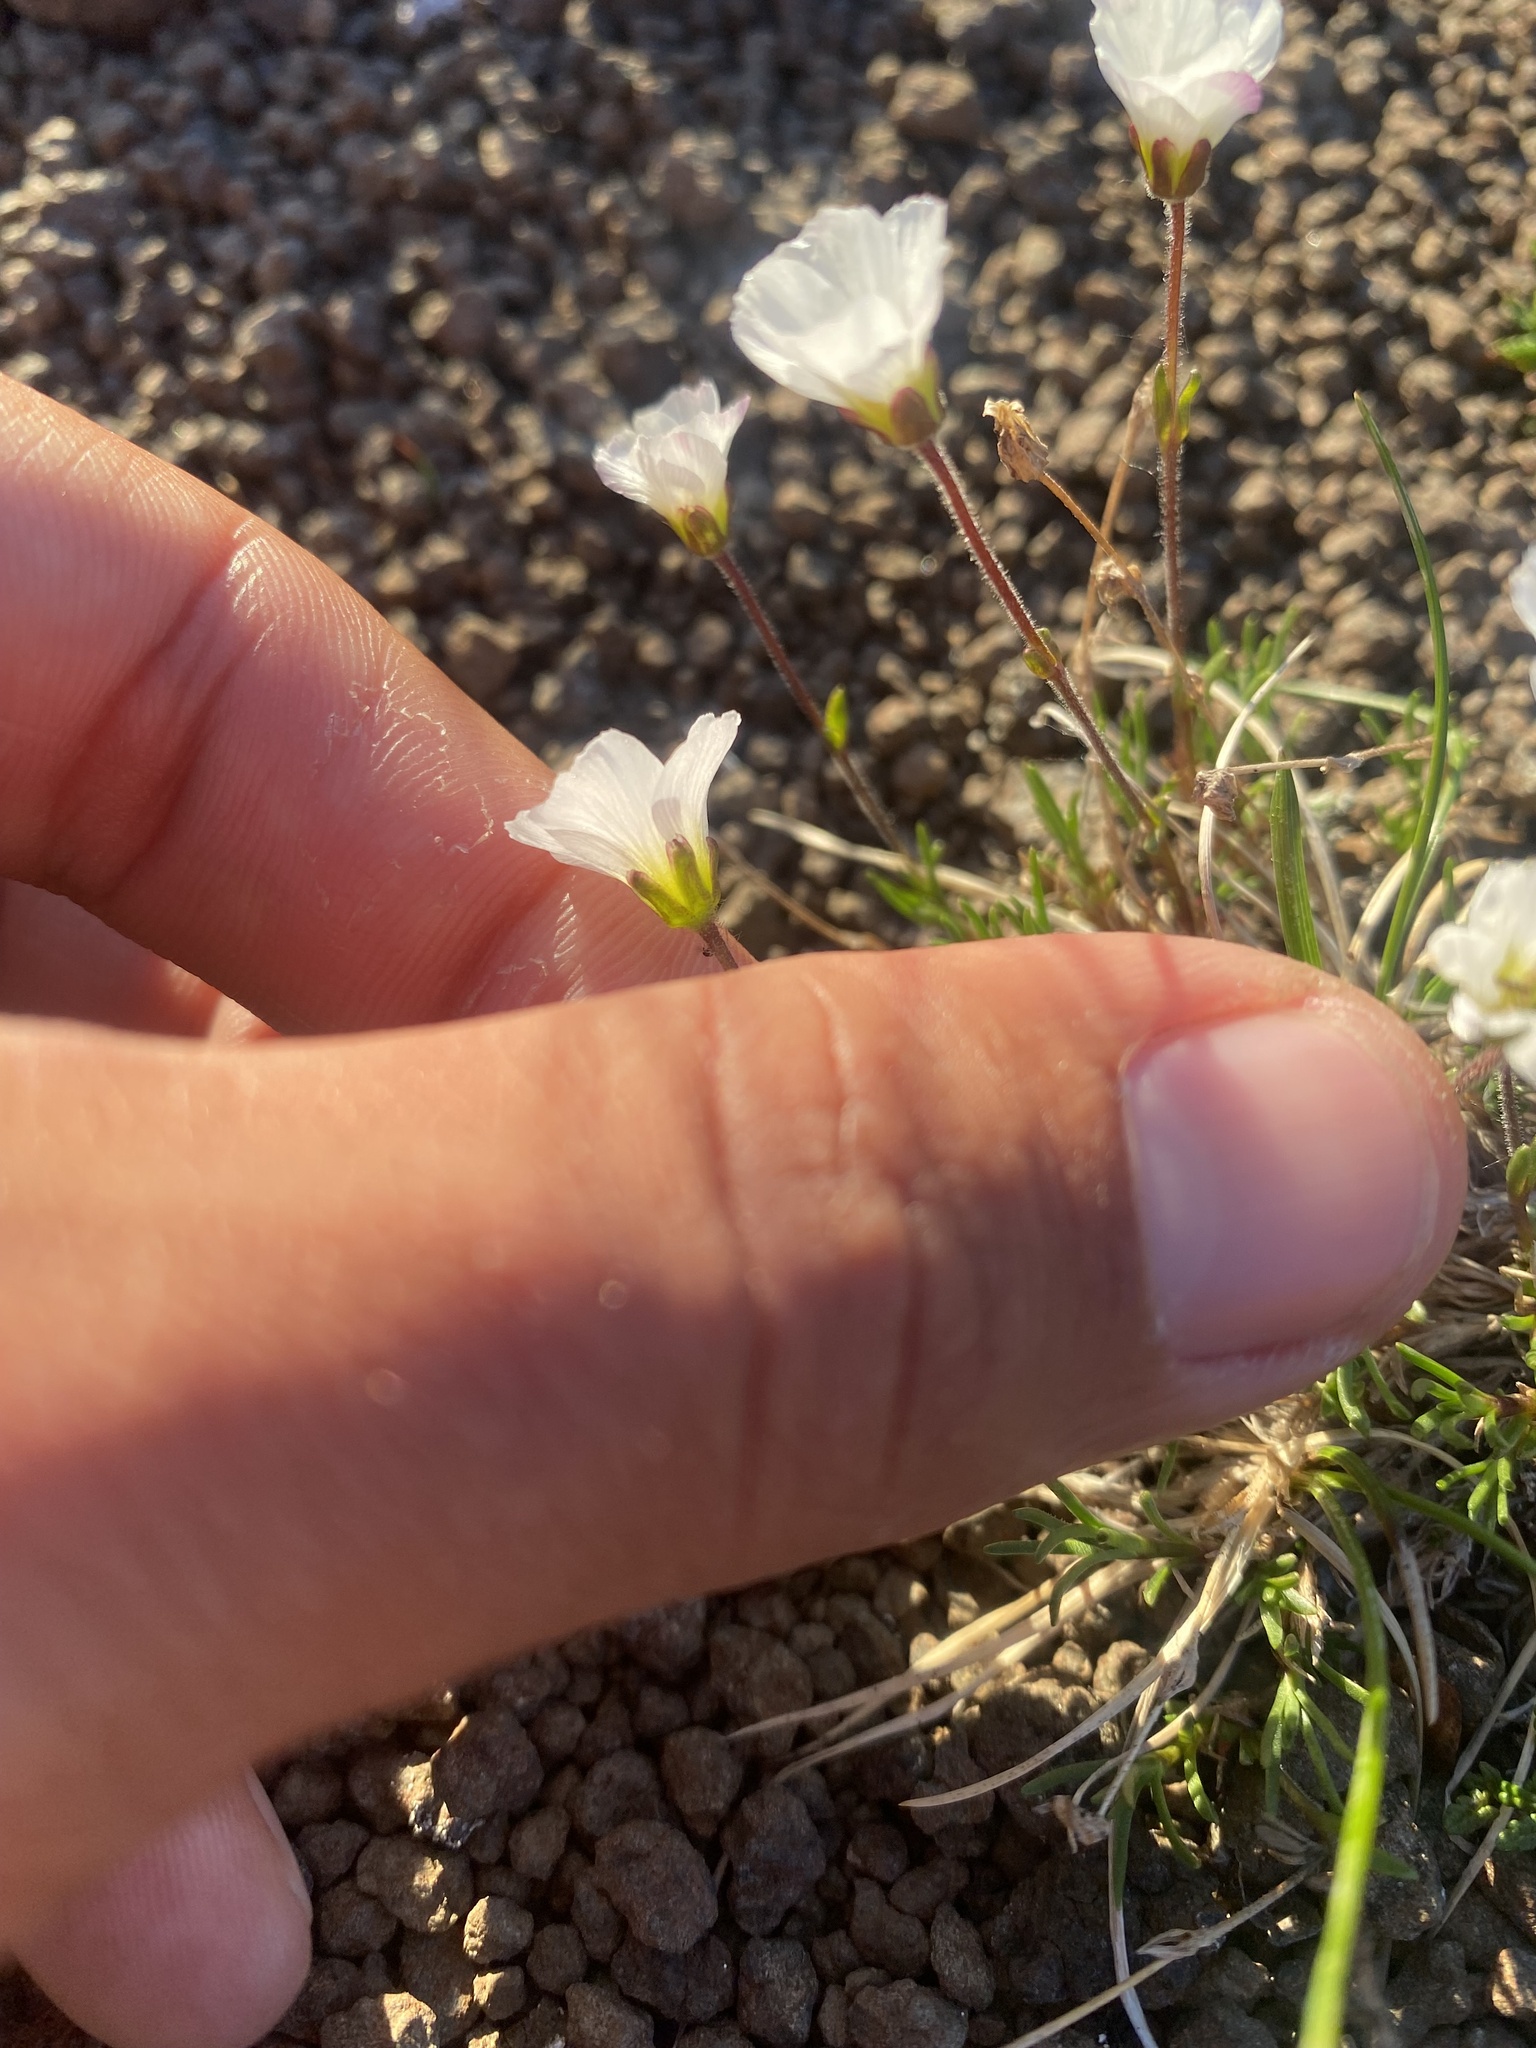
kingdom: Plantae
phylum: Tracheophyta
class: Magnoliopsida
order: Caryophyllales
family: Caryophyllaceae
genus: Cherleria
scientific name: Cherleria arctica
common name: Arctic sandwort
